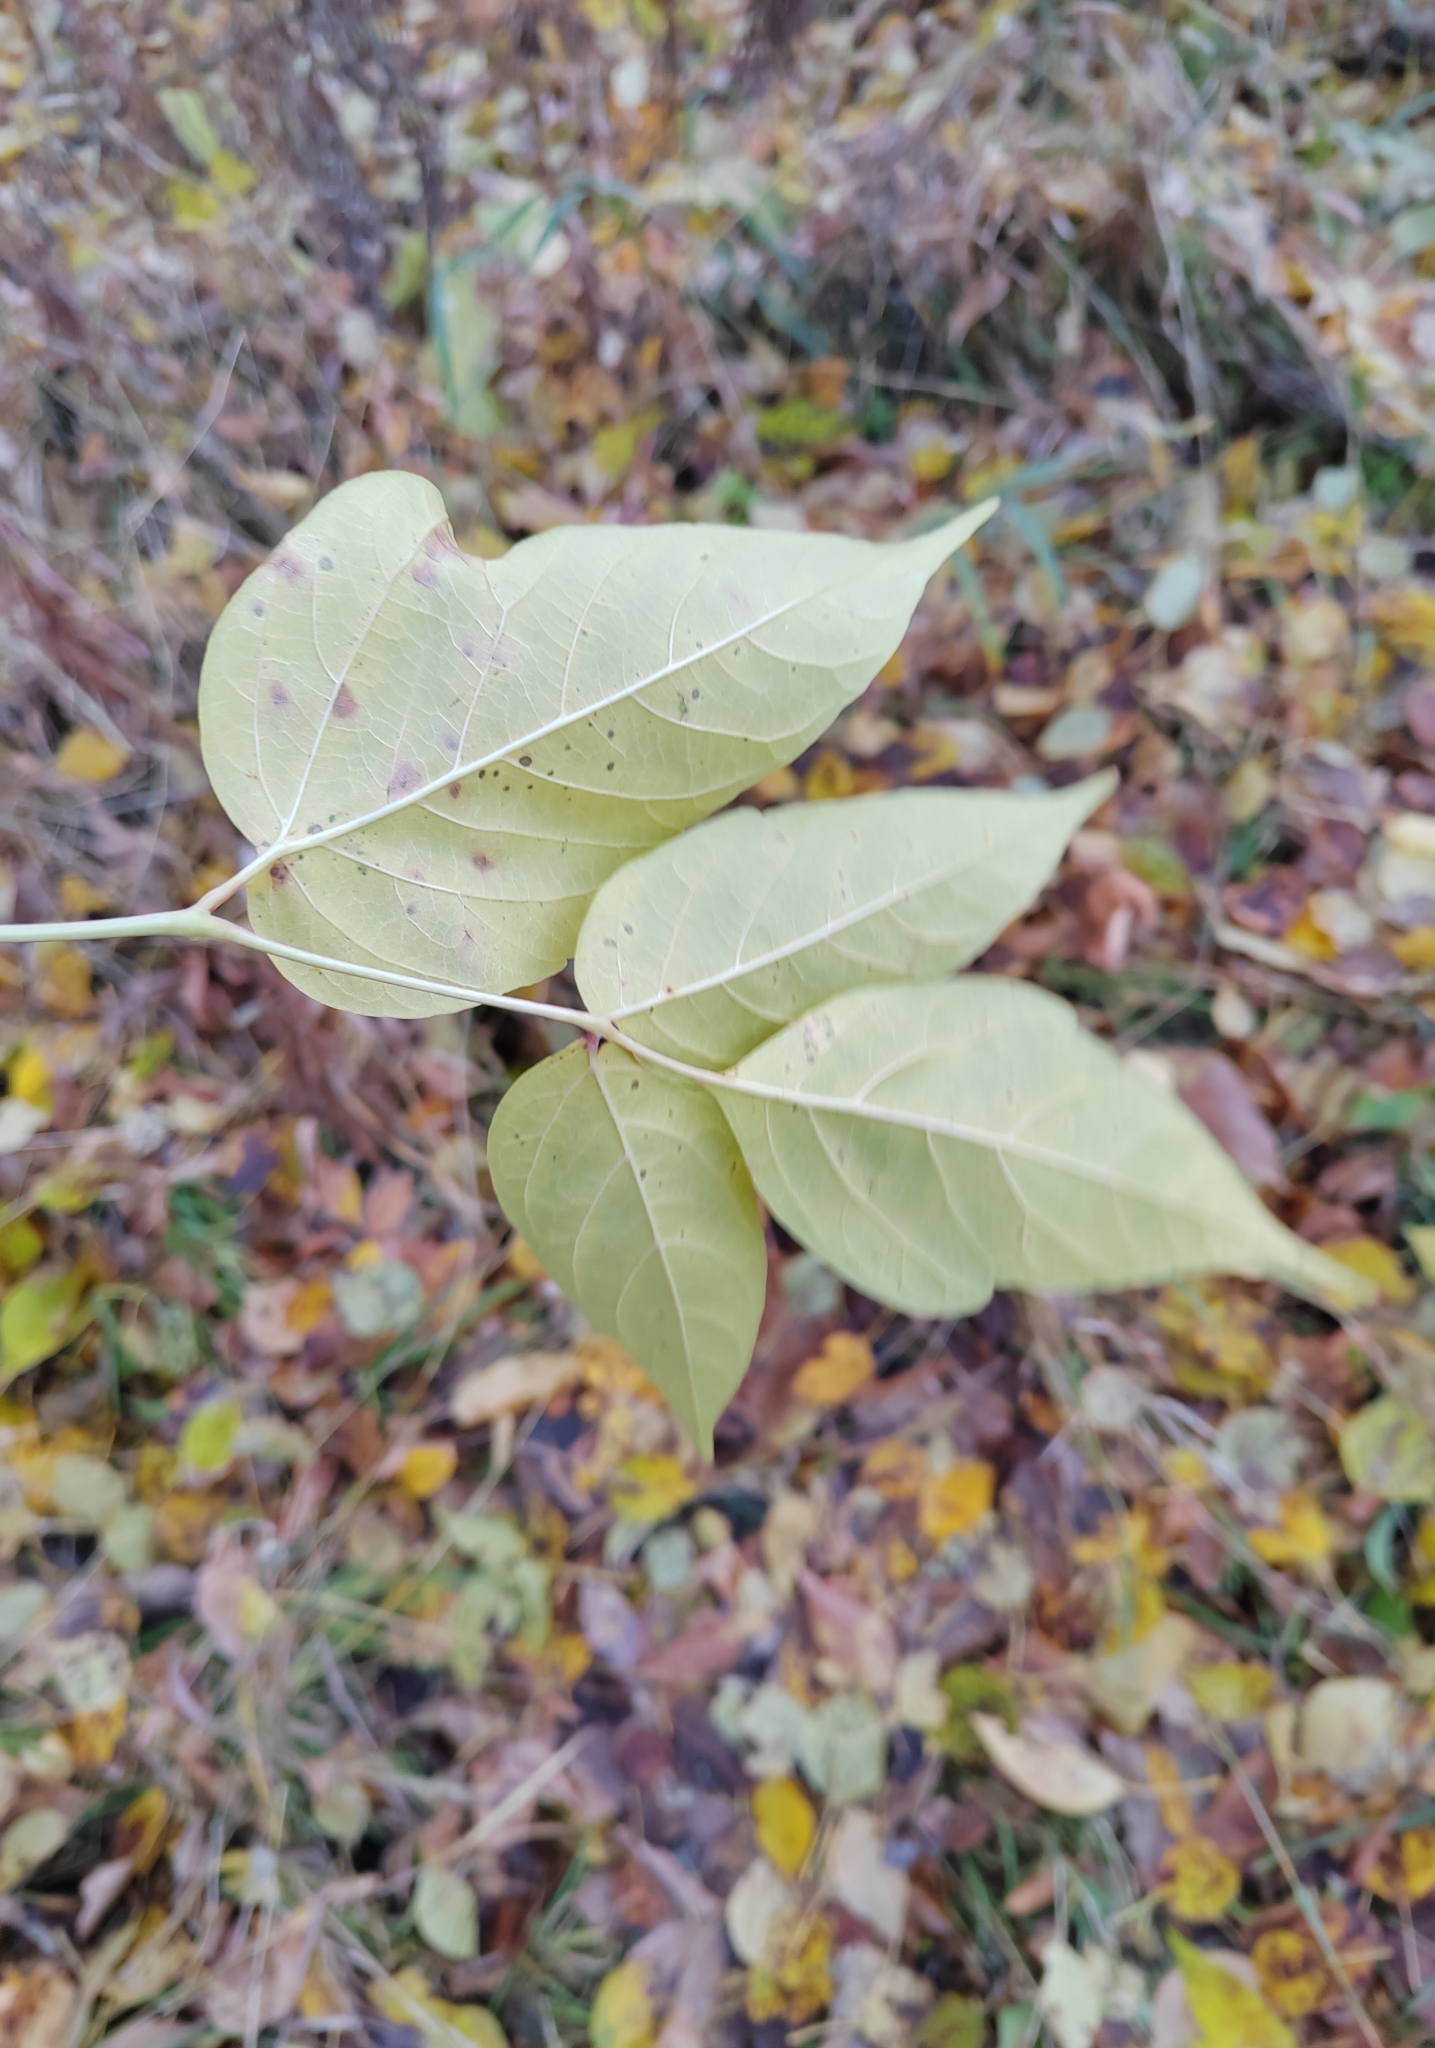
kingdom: Plantae
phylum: Tracheophyta
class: Magnoliopsida
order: Sapindales
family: Sapindaceae
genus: Acer
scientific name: Acer negundo
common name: Ashleaf maple
